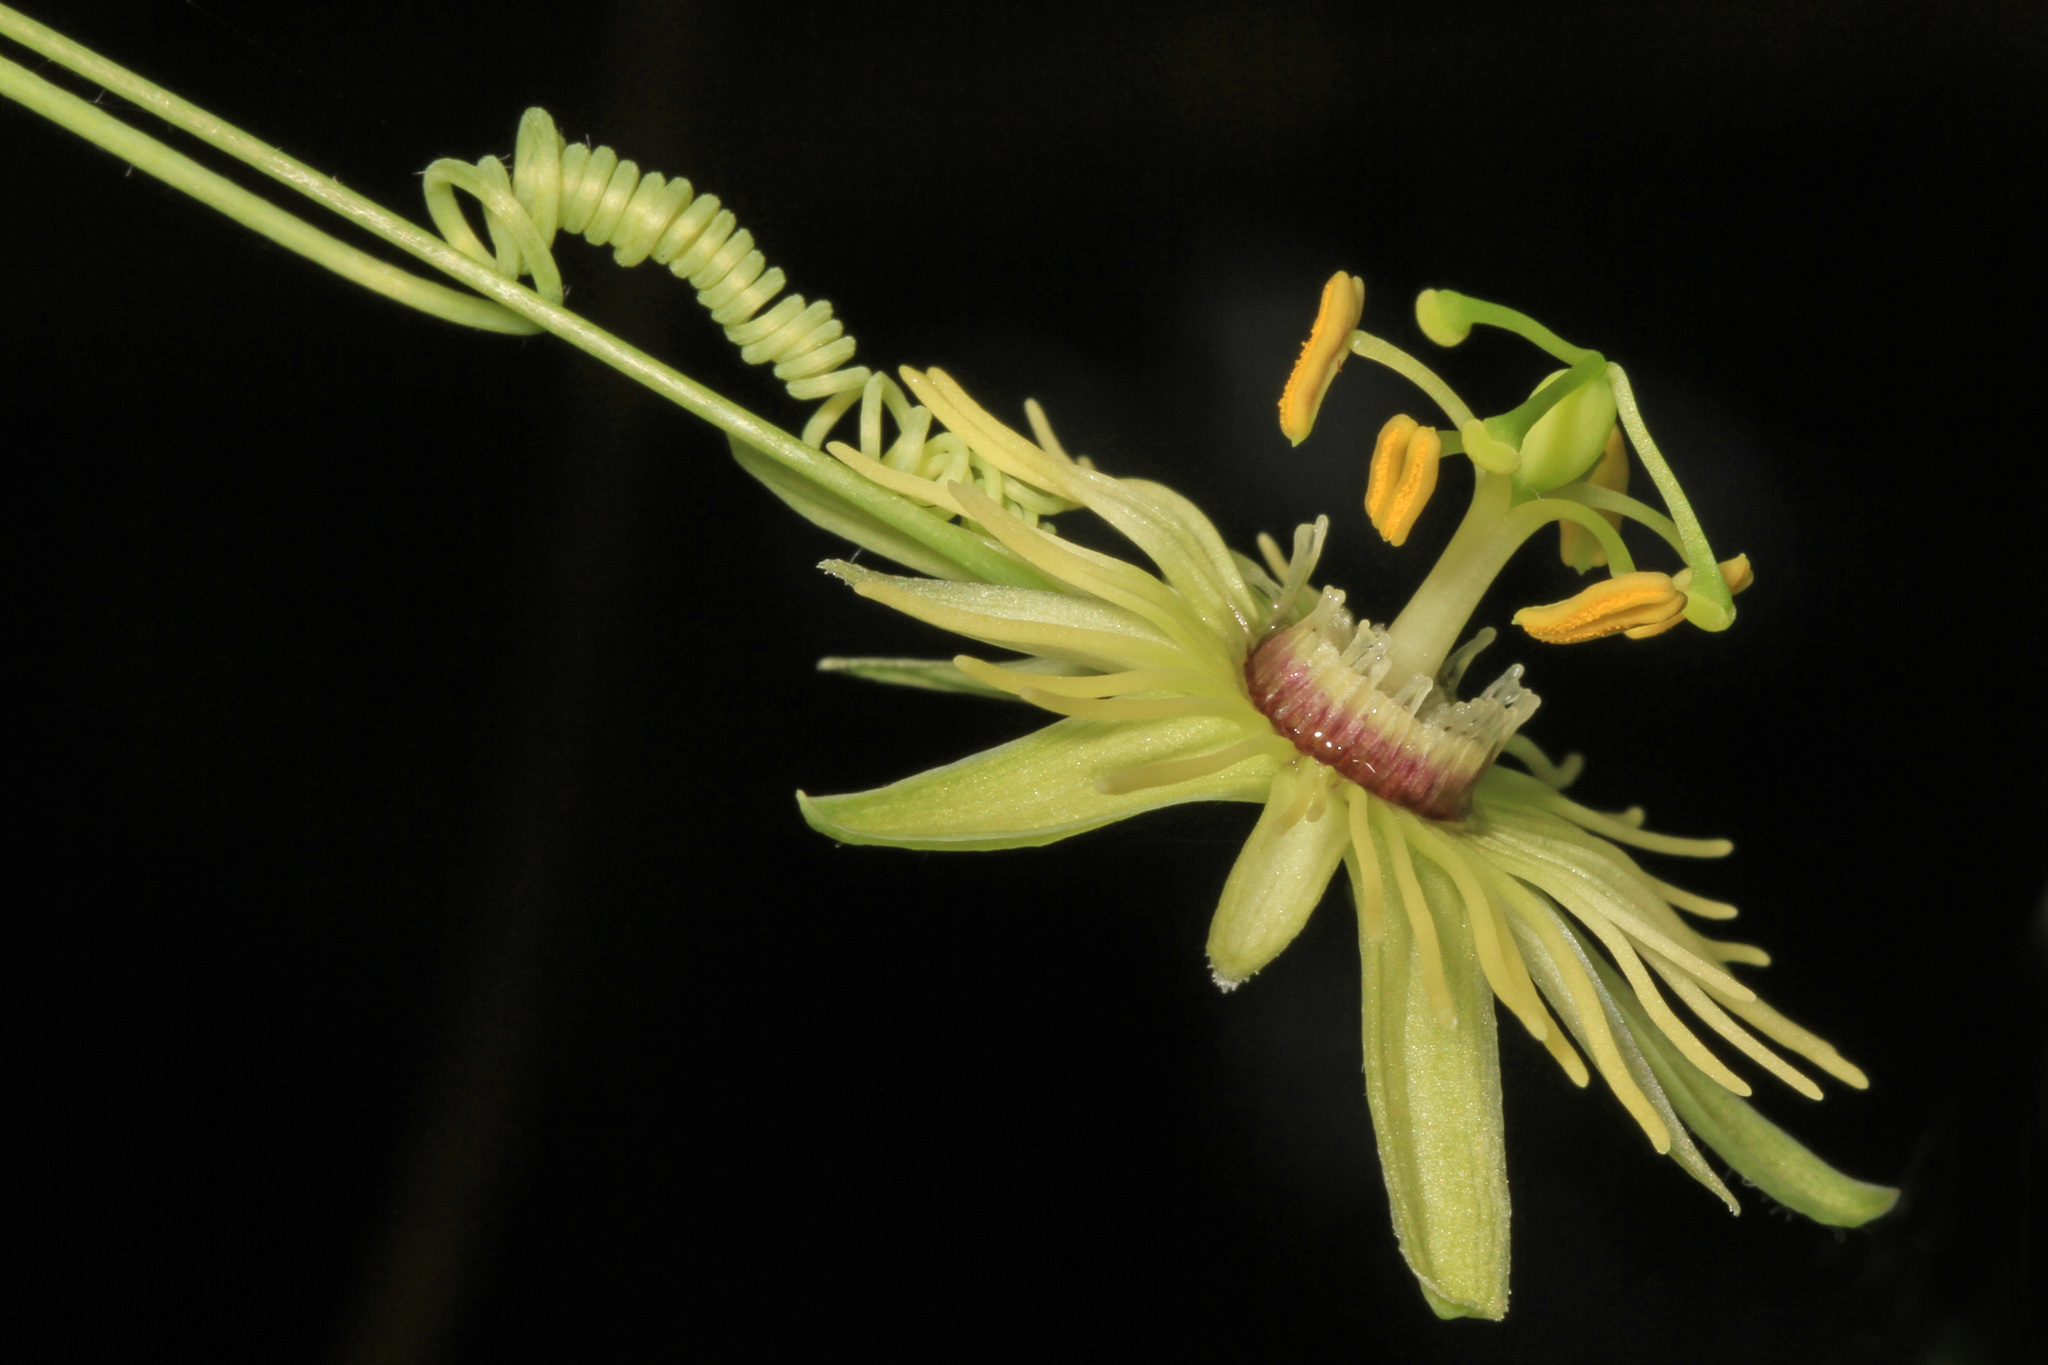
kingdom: Plantae
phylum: Tracheophyta
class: Magnoliopsida
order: Malpighiales
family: Passifloraceae
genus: Passiflora
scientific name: Passiflora lutea
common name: Yellow passionflower
